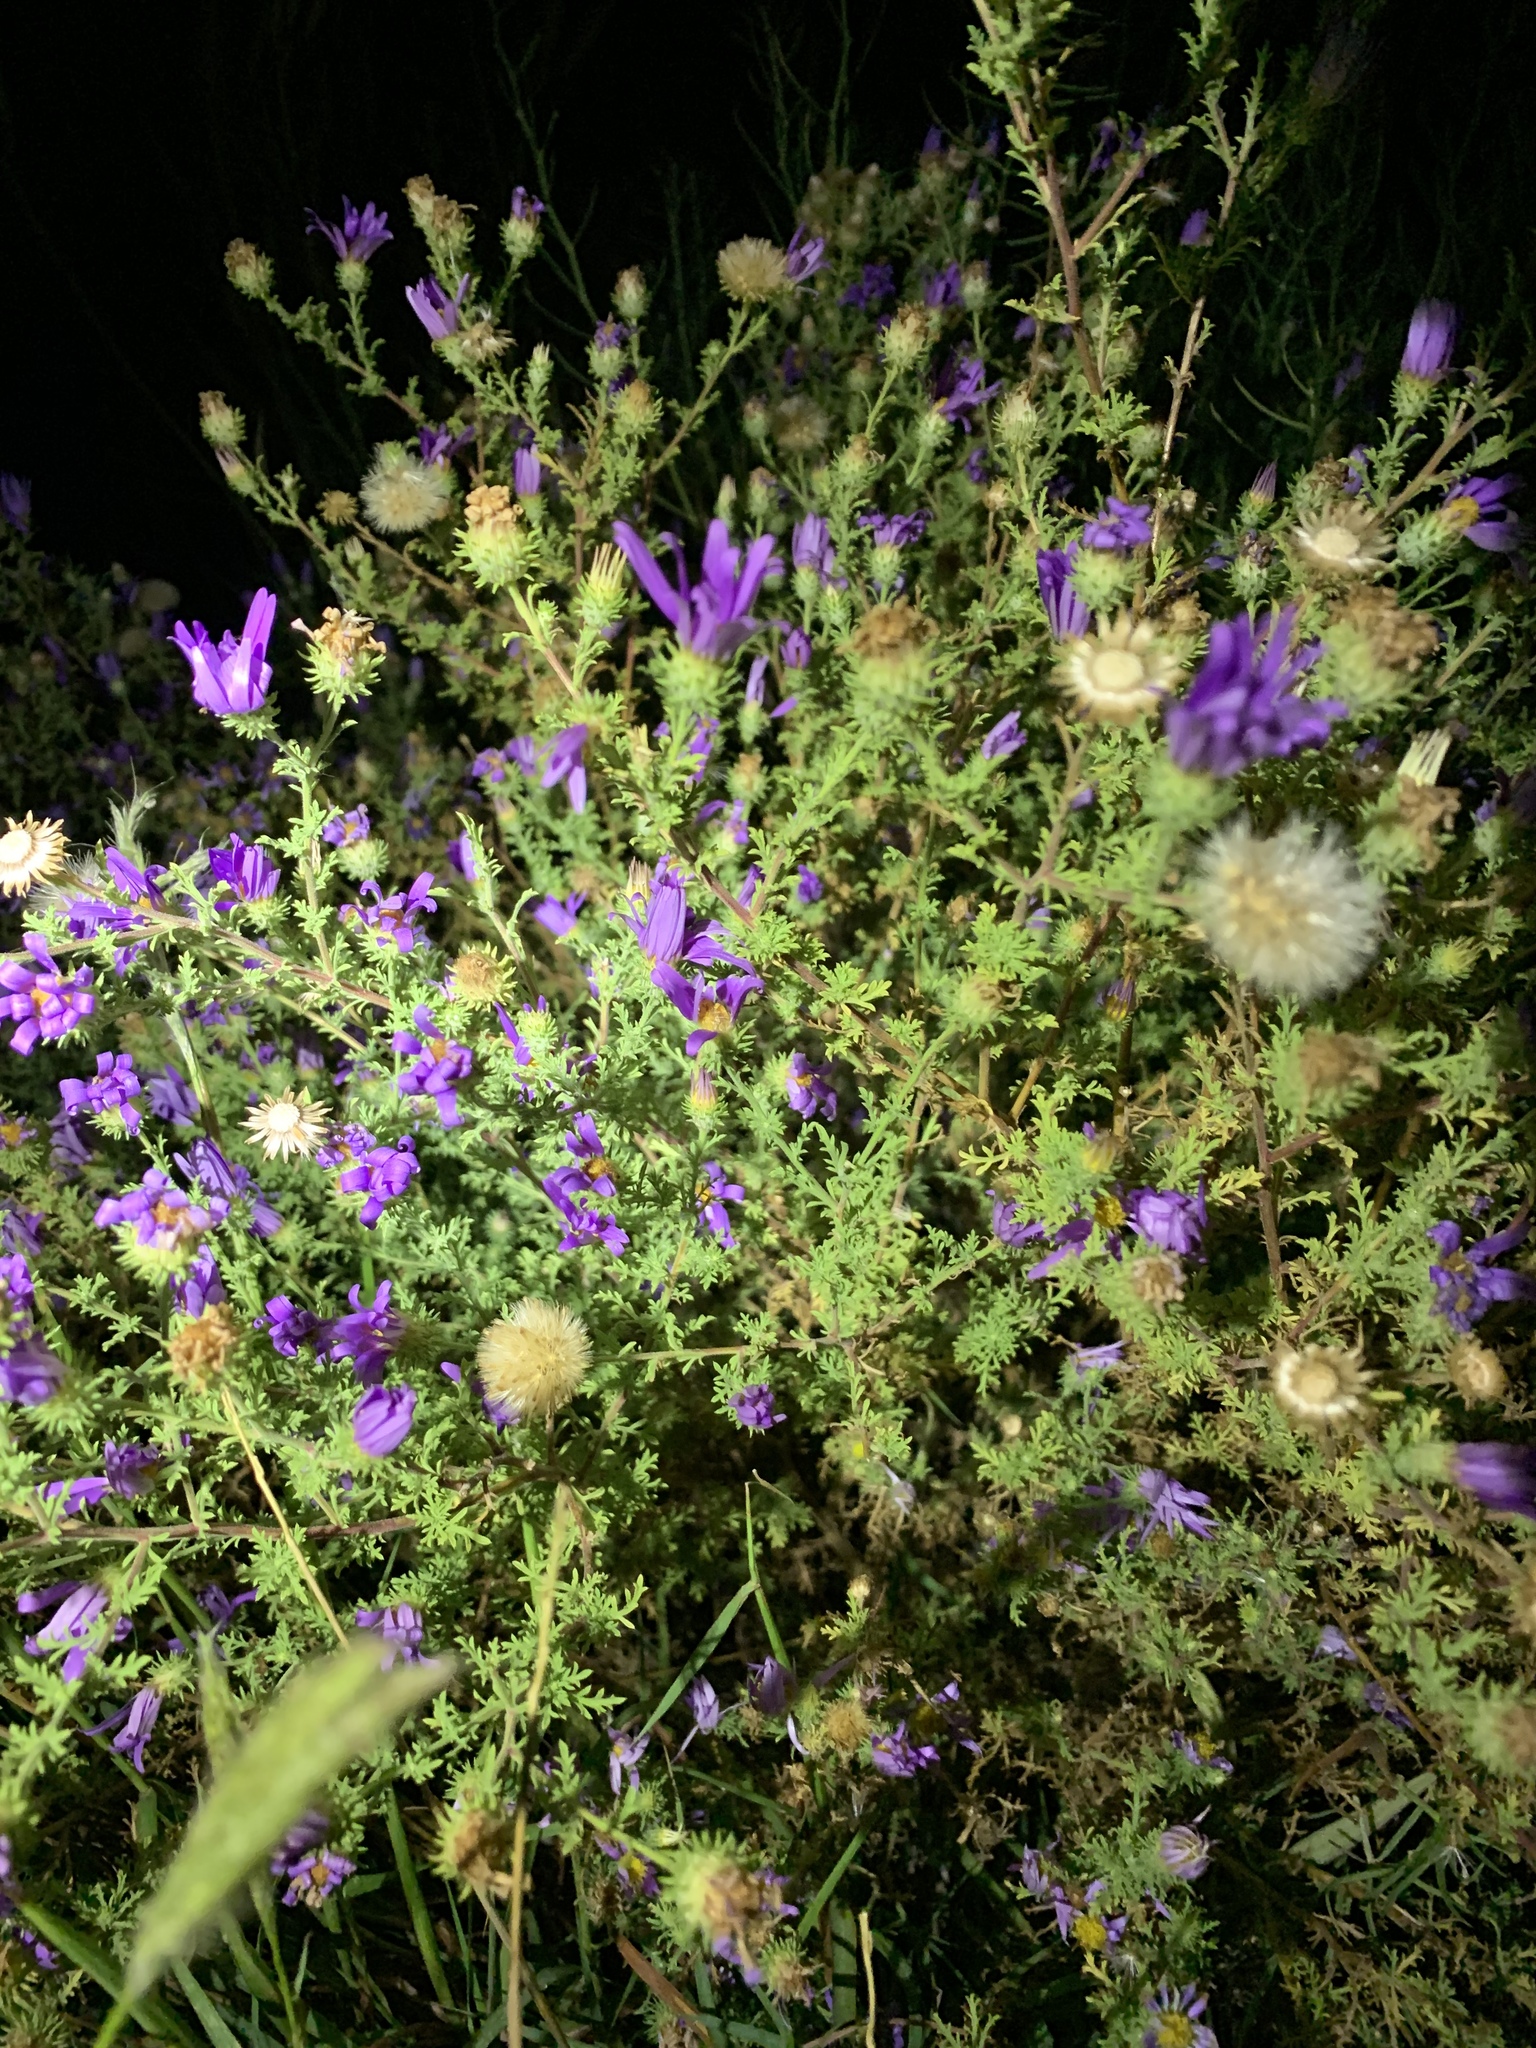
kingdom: Plantae
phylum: Tracheophyta
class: Magnoliopsida
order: Asterales
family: Asteraceae
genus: Machaeranthera
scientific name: Machaeranthera tanacetifolia
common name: Tansy-aster
